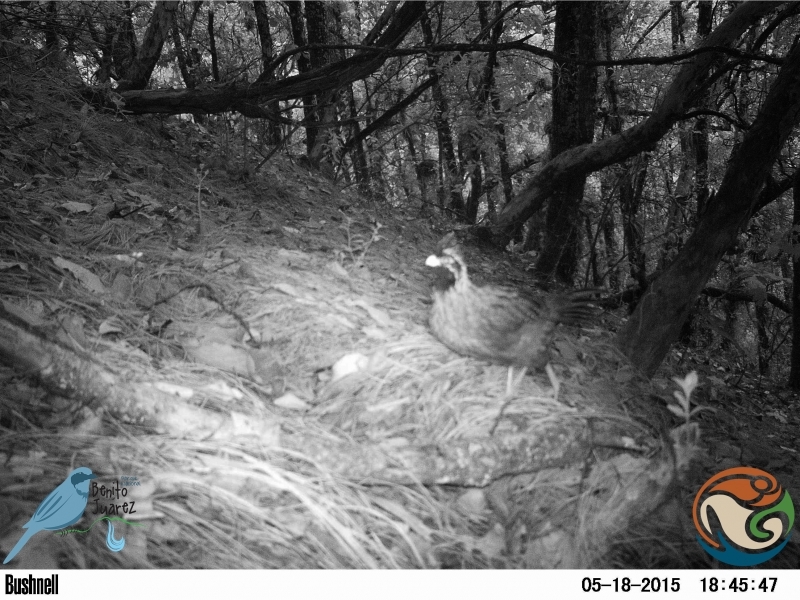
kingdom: Animalia
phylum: Chordata
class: Aves
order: Galliformes
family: Odontophoridae
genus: Dendrortyx
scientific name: Dendrortyx macroura
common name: Long-tailed wood-partridge
